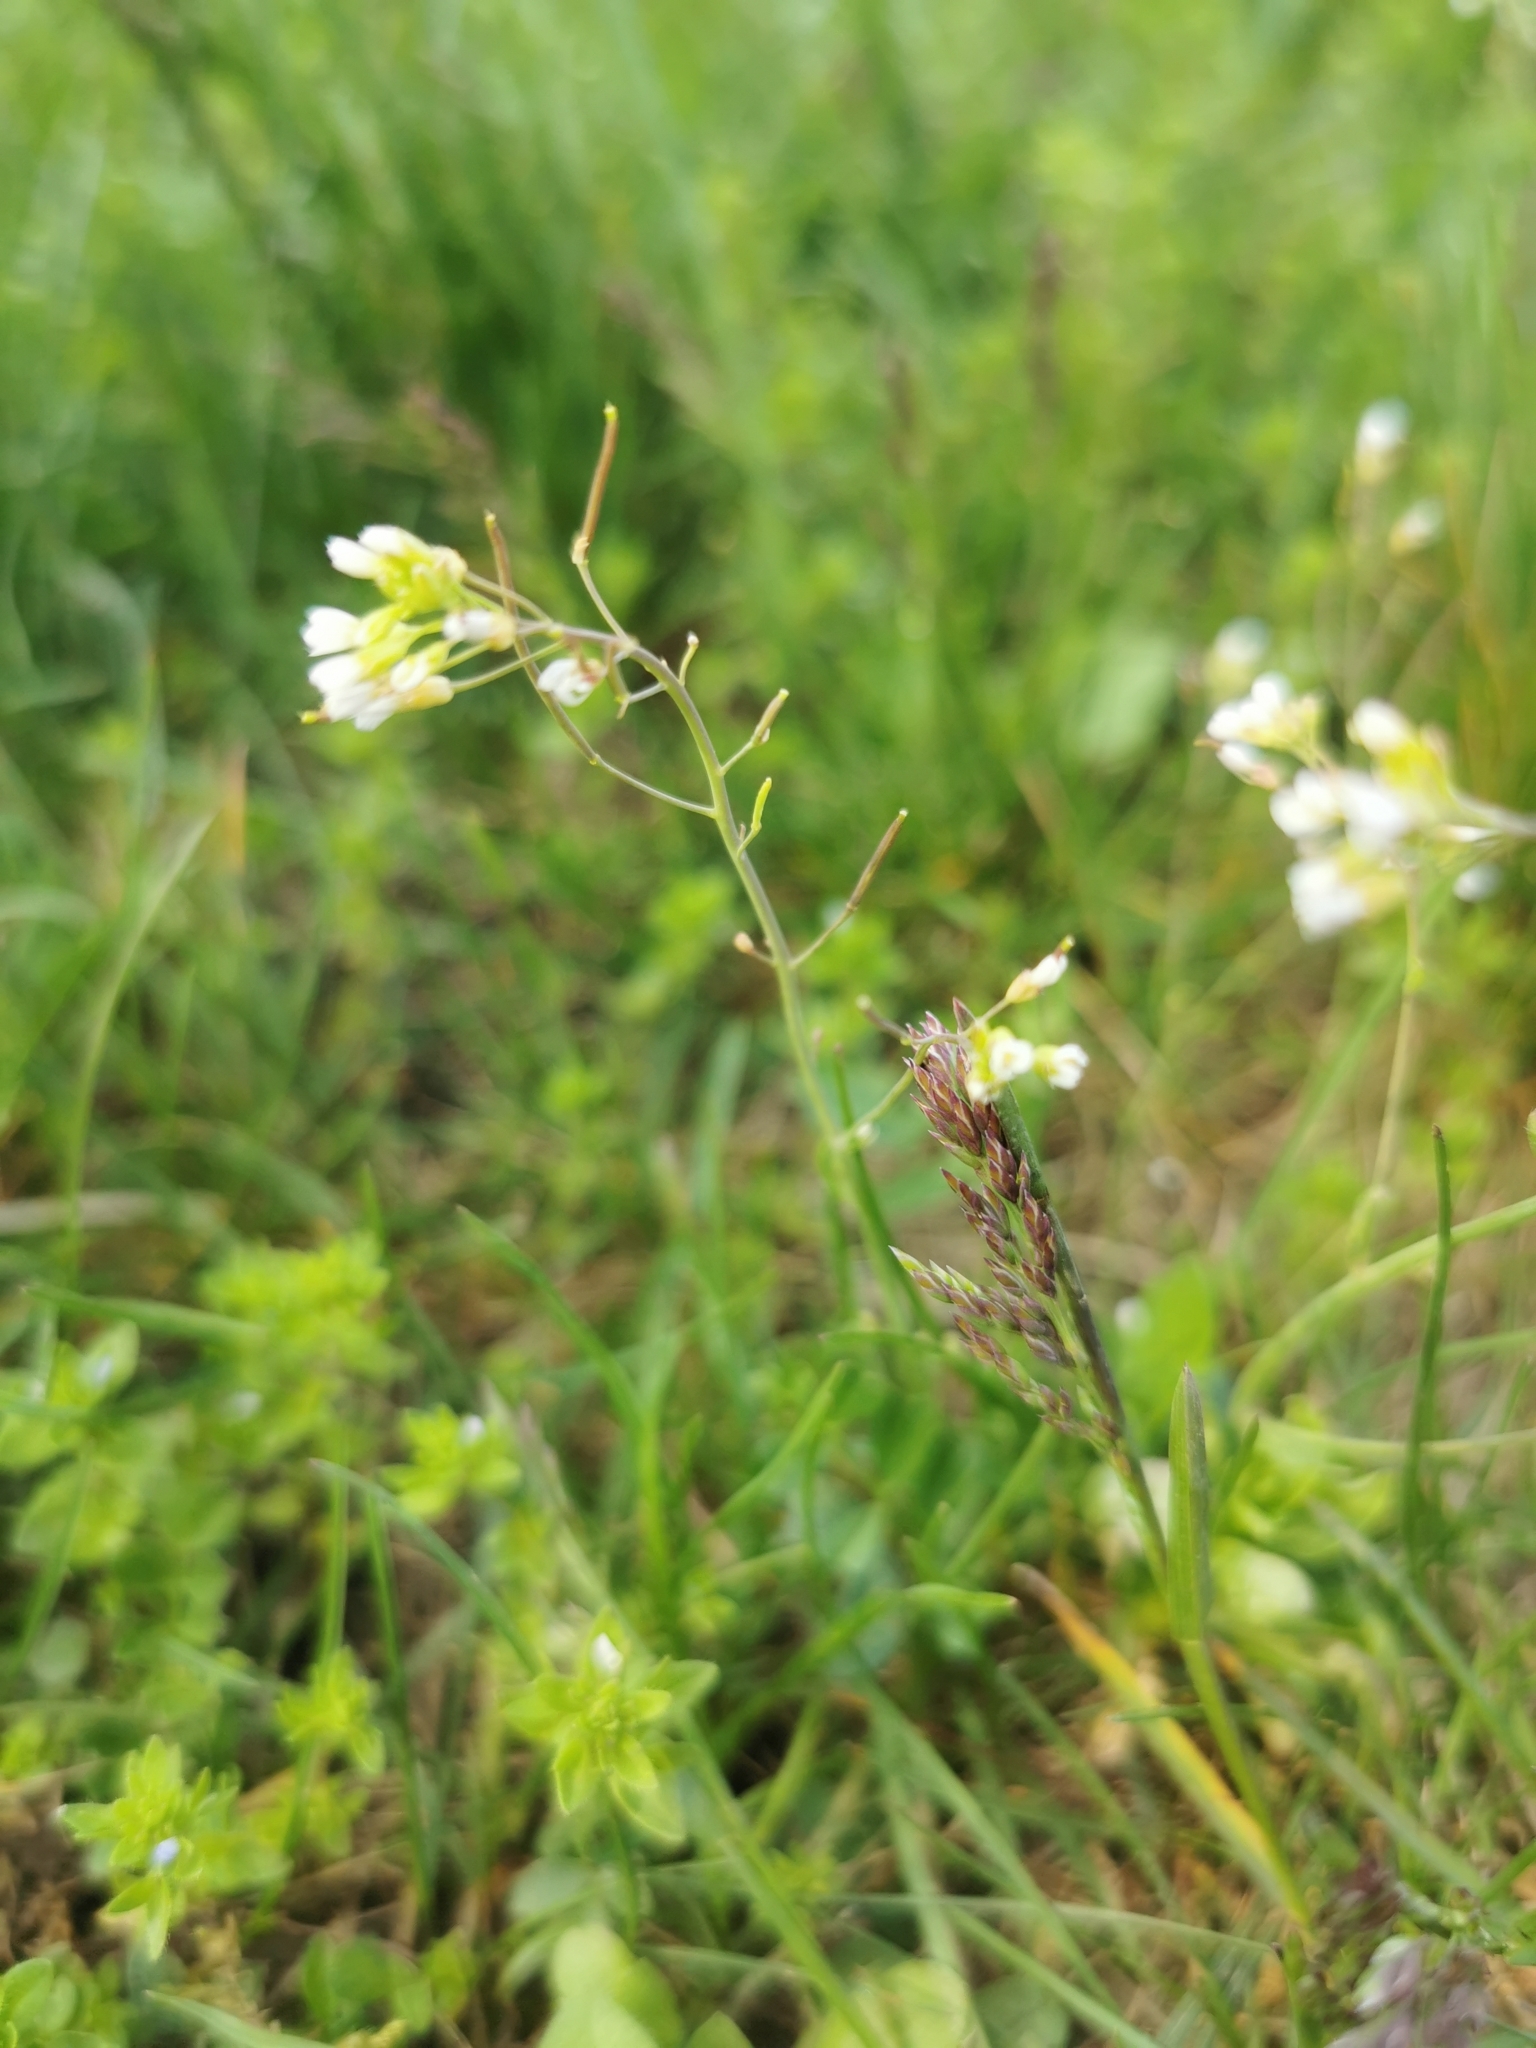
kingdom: Plantae
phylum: Tracheophyta
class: Magnoliopsida
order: Brassicales
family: Brassicaceae
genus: Arabidopsis
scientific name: Arabidopsis thaliana
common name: Thale cress
